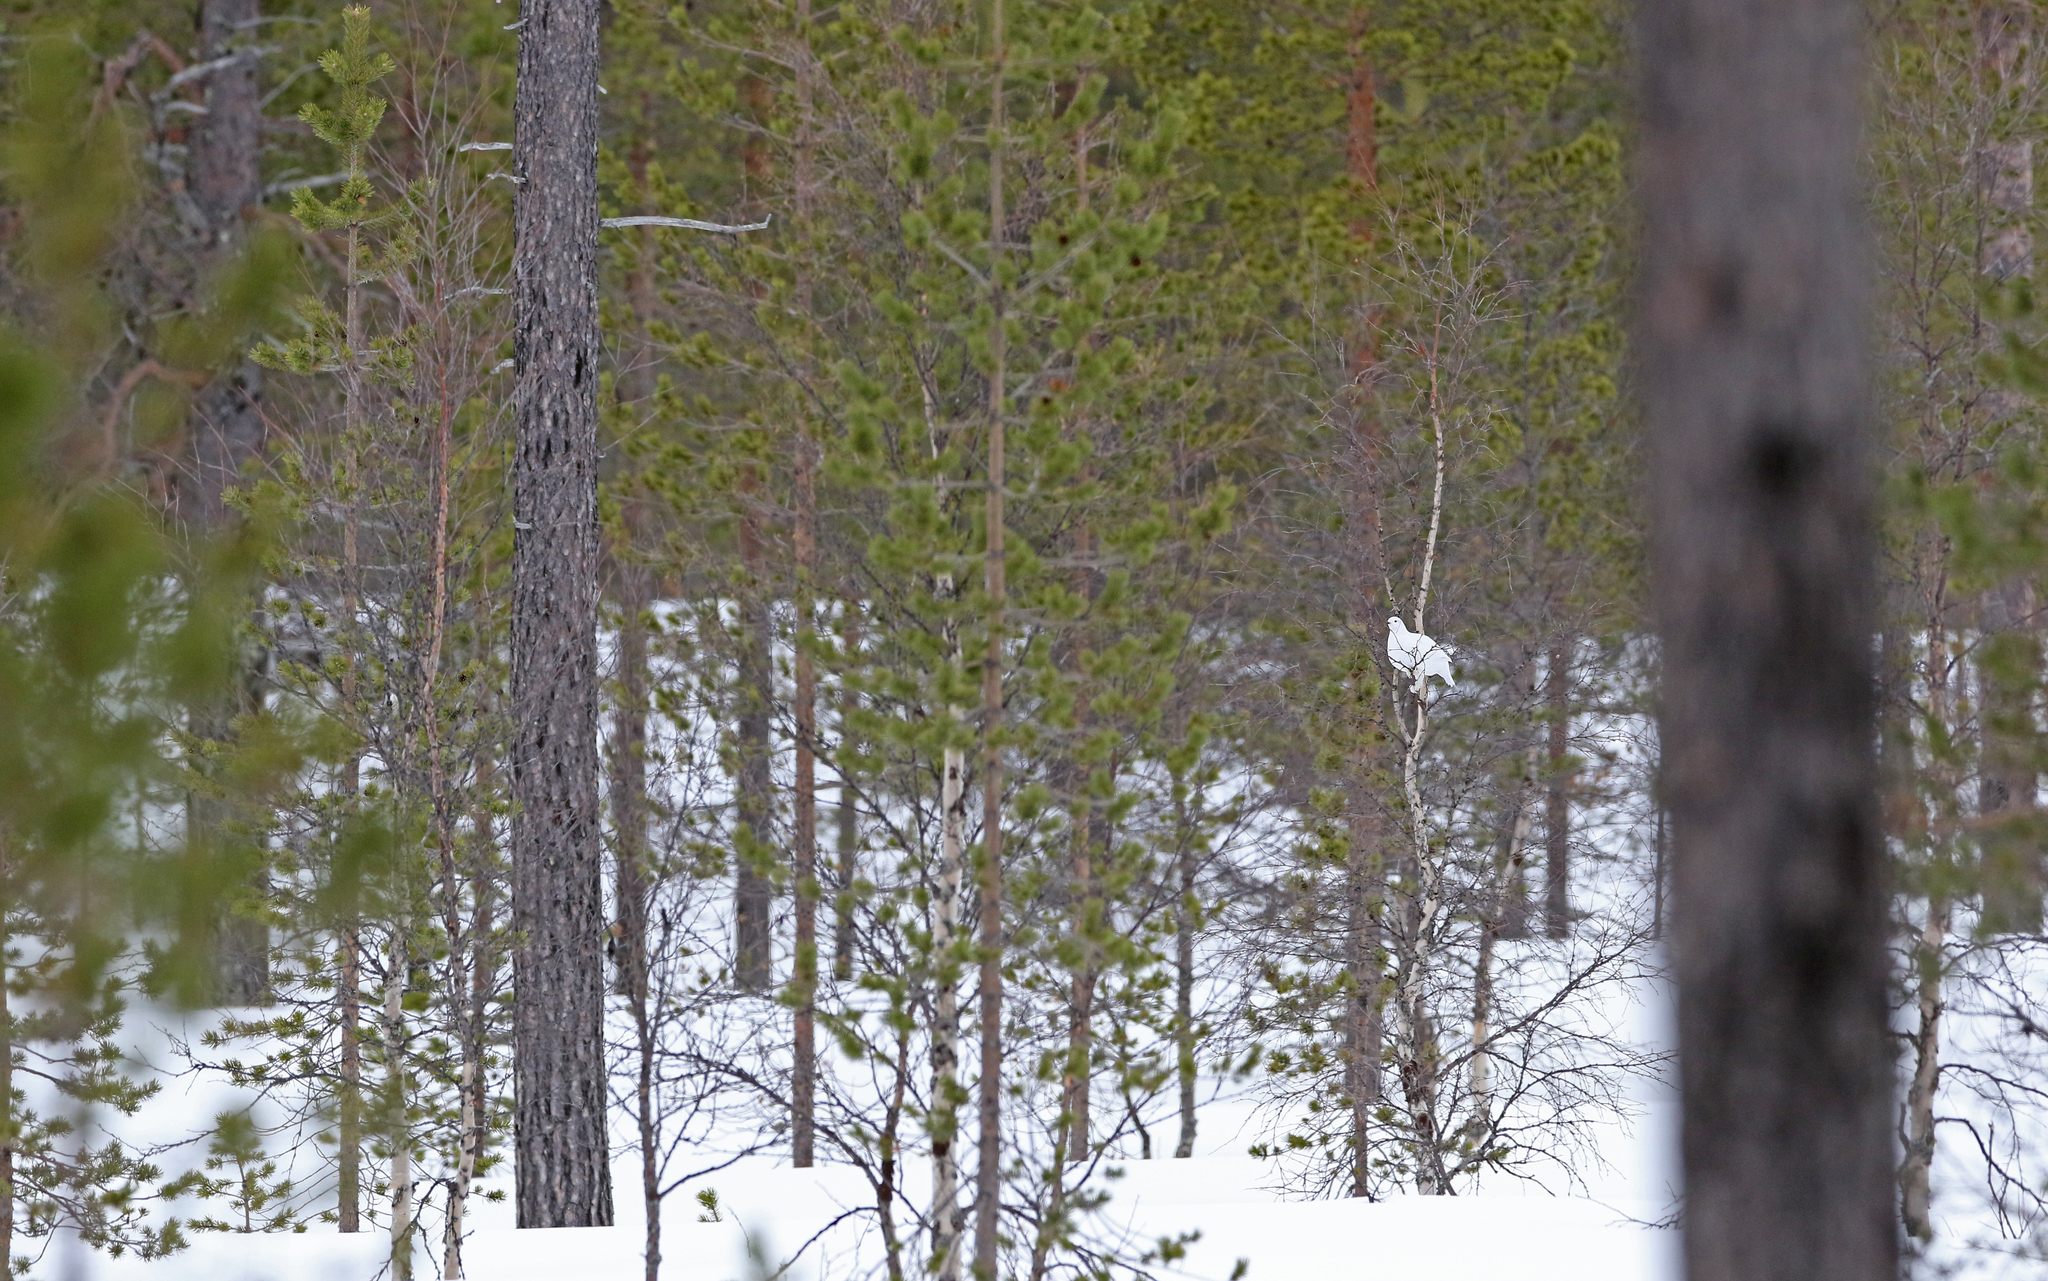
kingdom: Animalia
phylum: Chordata
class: Aves
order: Galliformes
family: Phasianidae
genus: Lagopus
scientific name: Lagopus lagopus
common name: Willow ptarmigan
